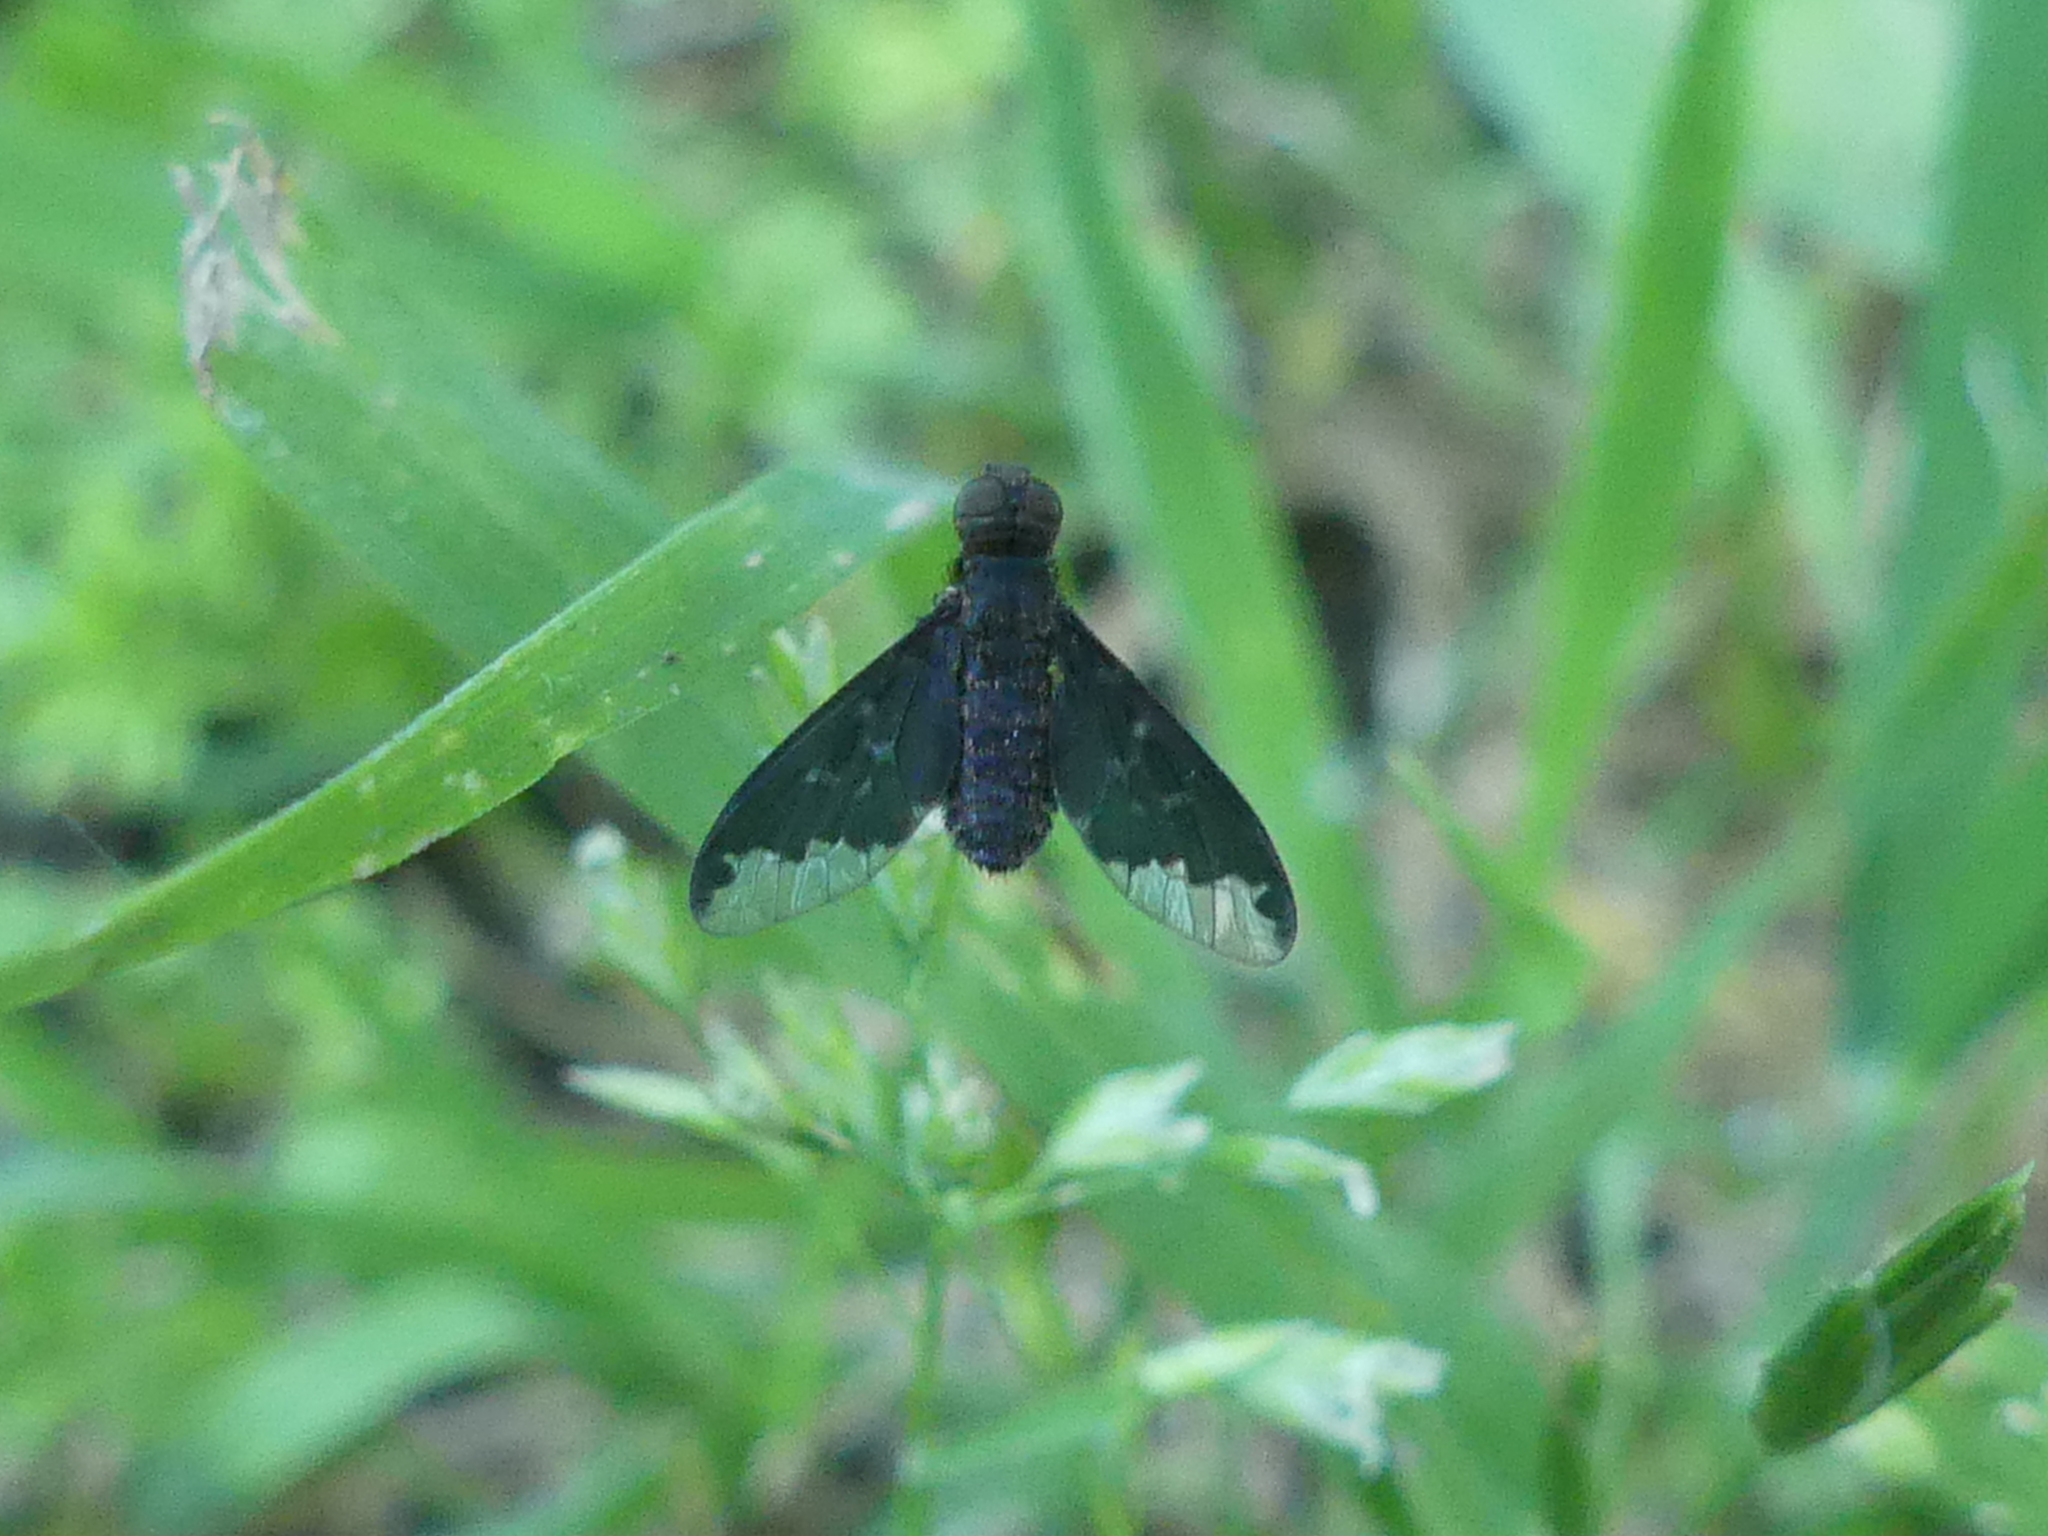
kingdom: Animalia
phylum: Arthropoda
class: Insecta
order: Diptera
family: Bombyliidae
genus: Hemipenthes
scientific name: Hemipenthes sinuosus
